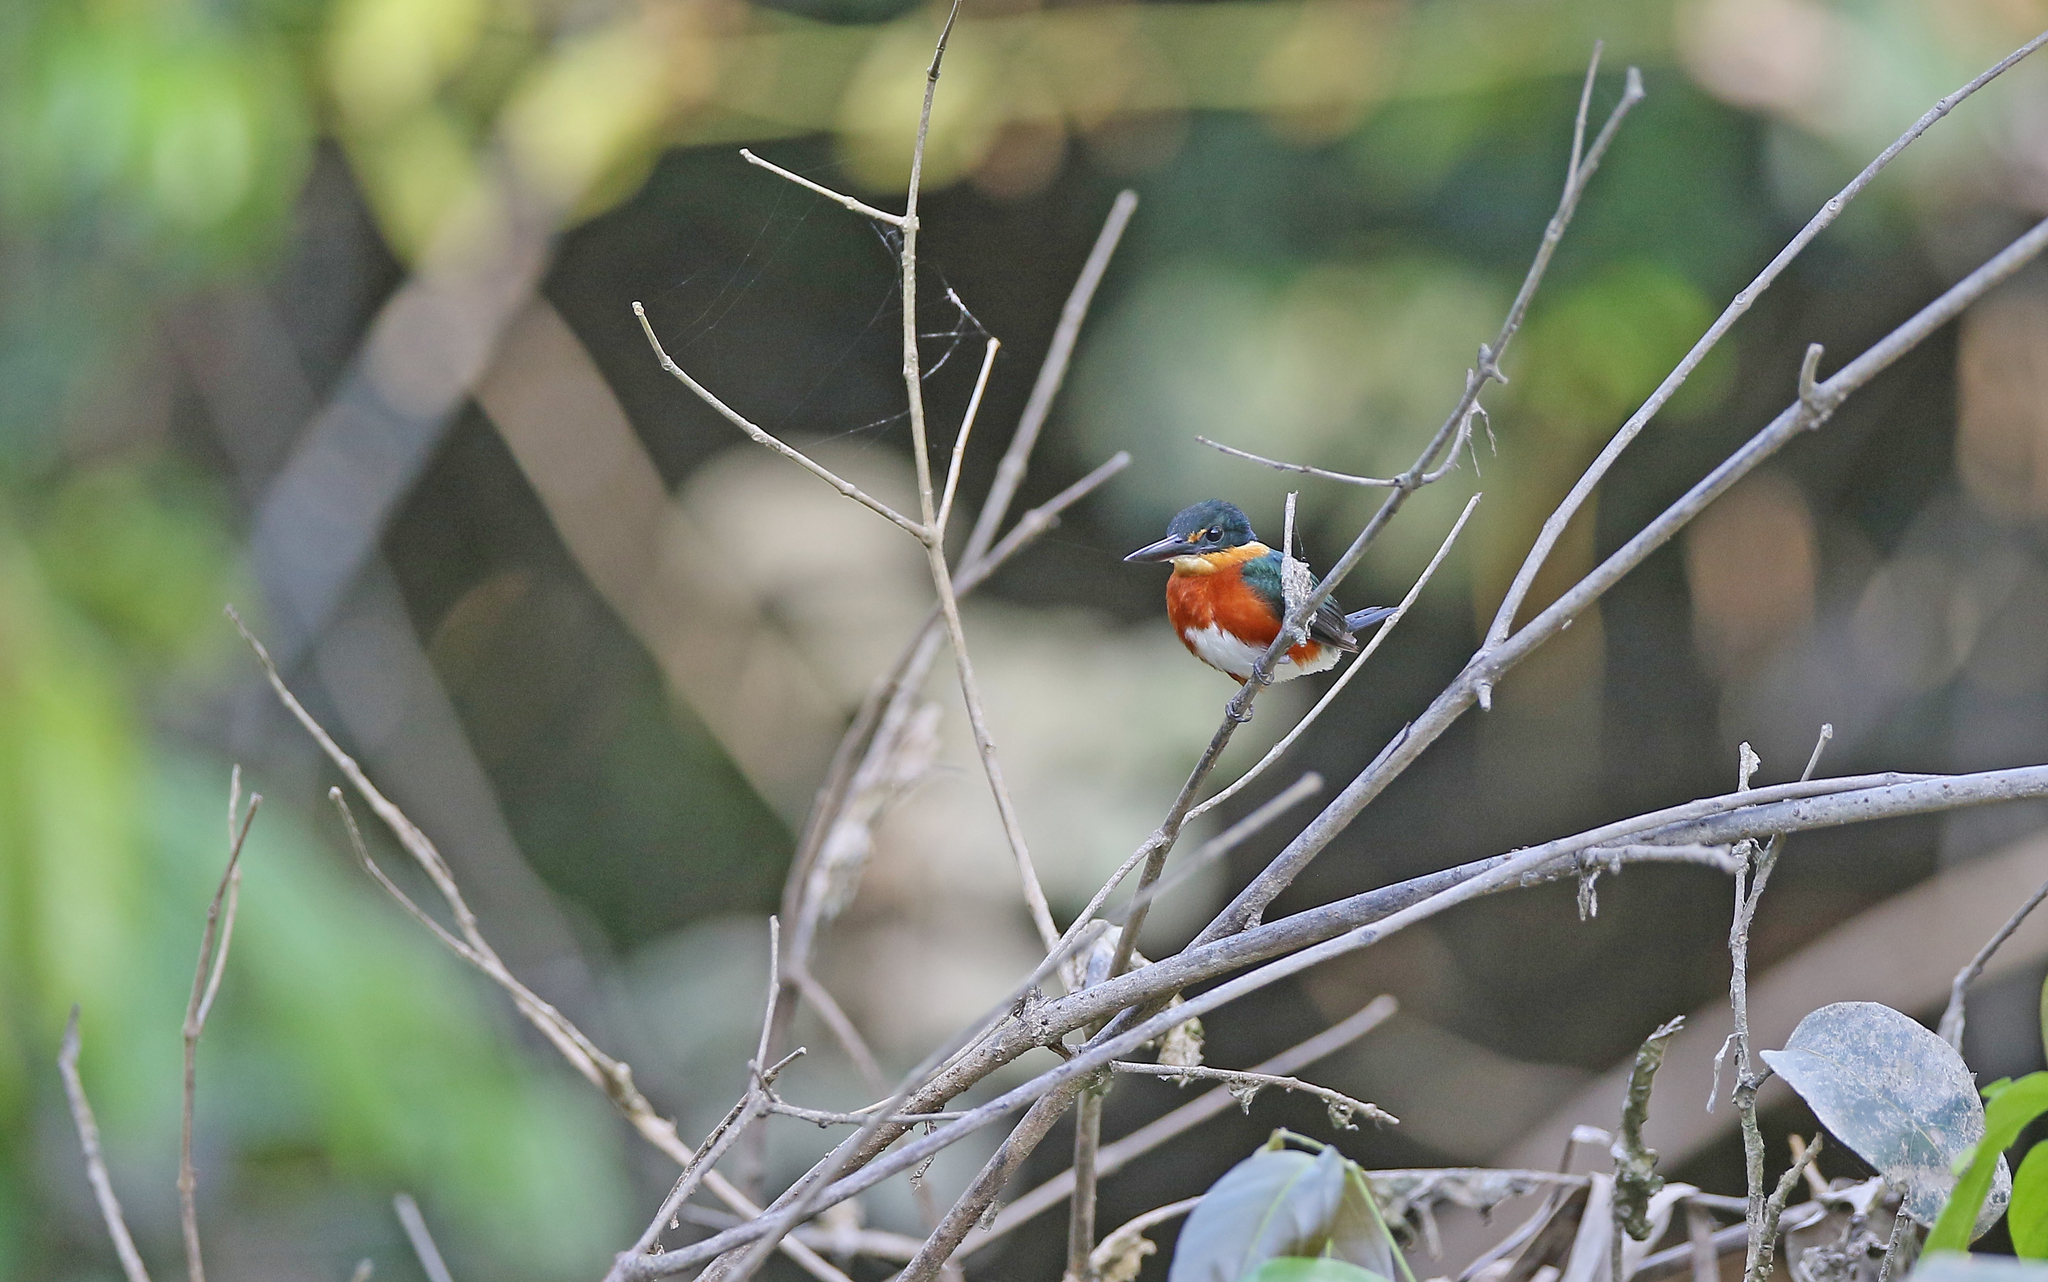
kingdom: Animalia
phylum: Chordata
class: Aves
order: Coraciiformes
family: Alcedinidae
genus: Chloroceryle
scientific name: Chloroceryle aenea
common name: American pygmy kingfisher
